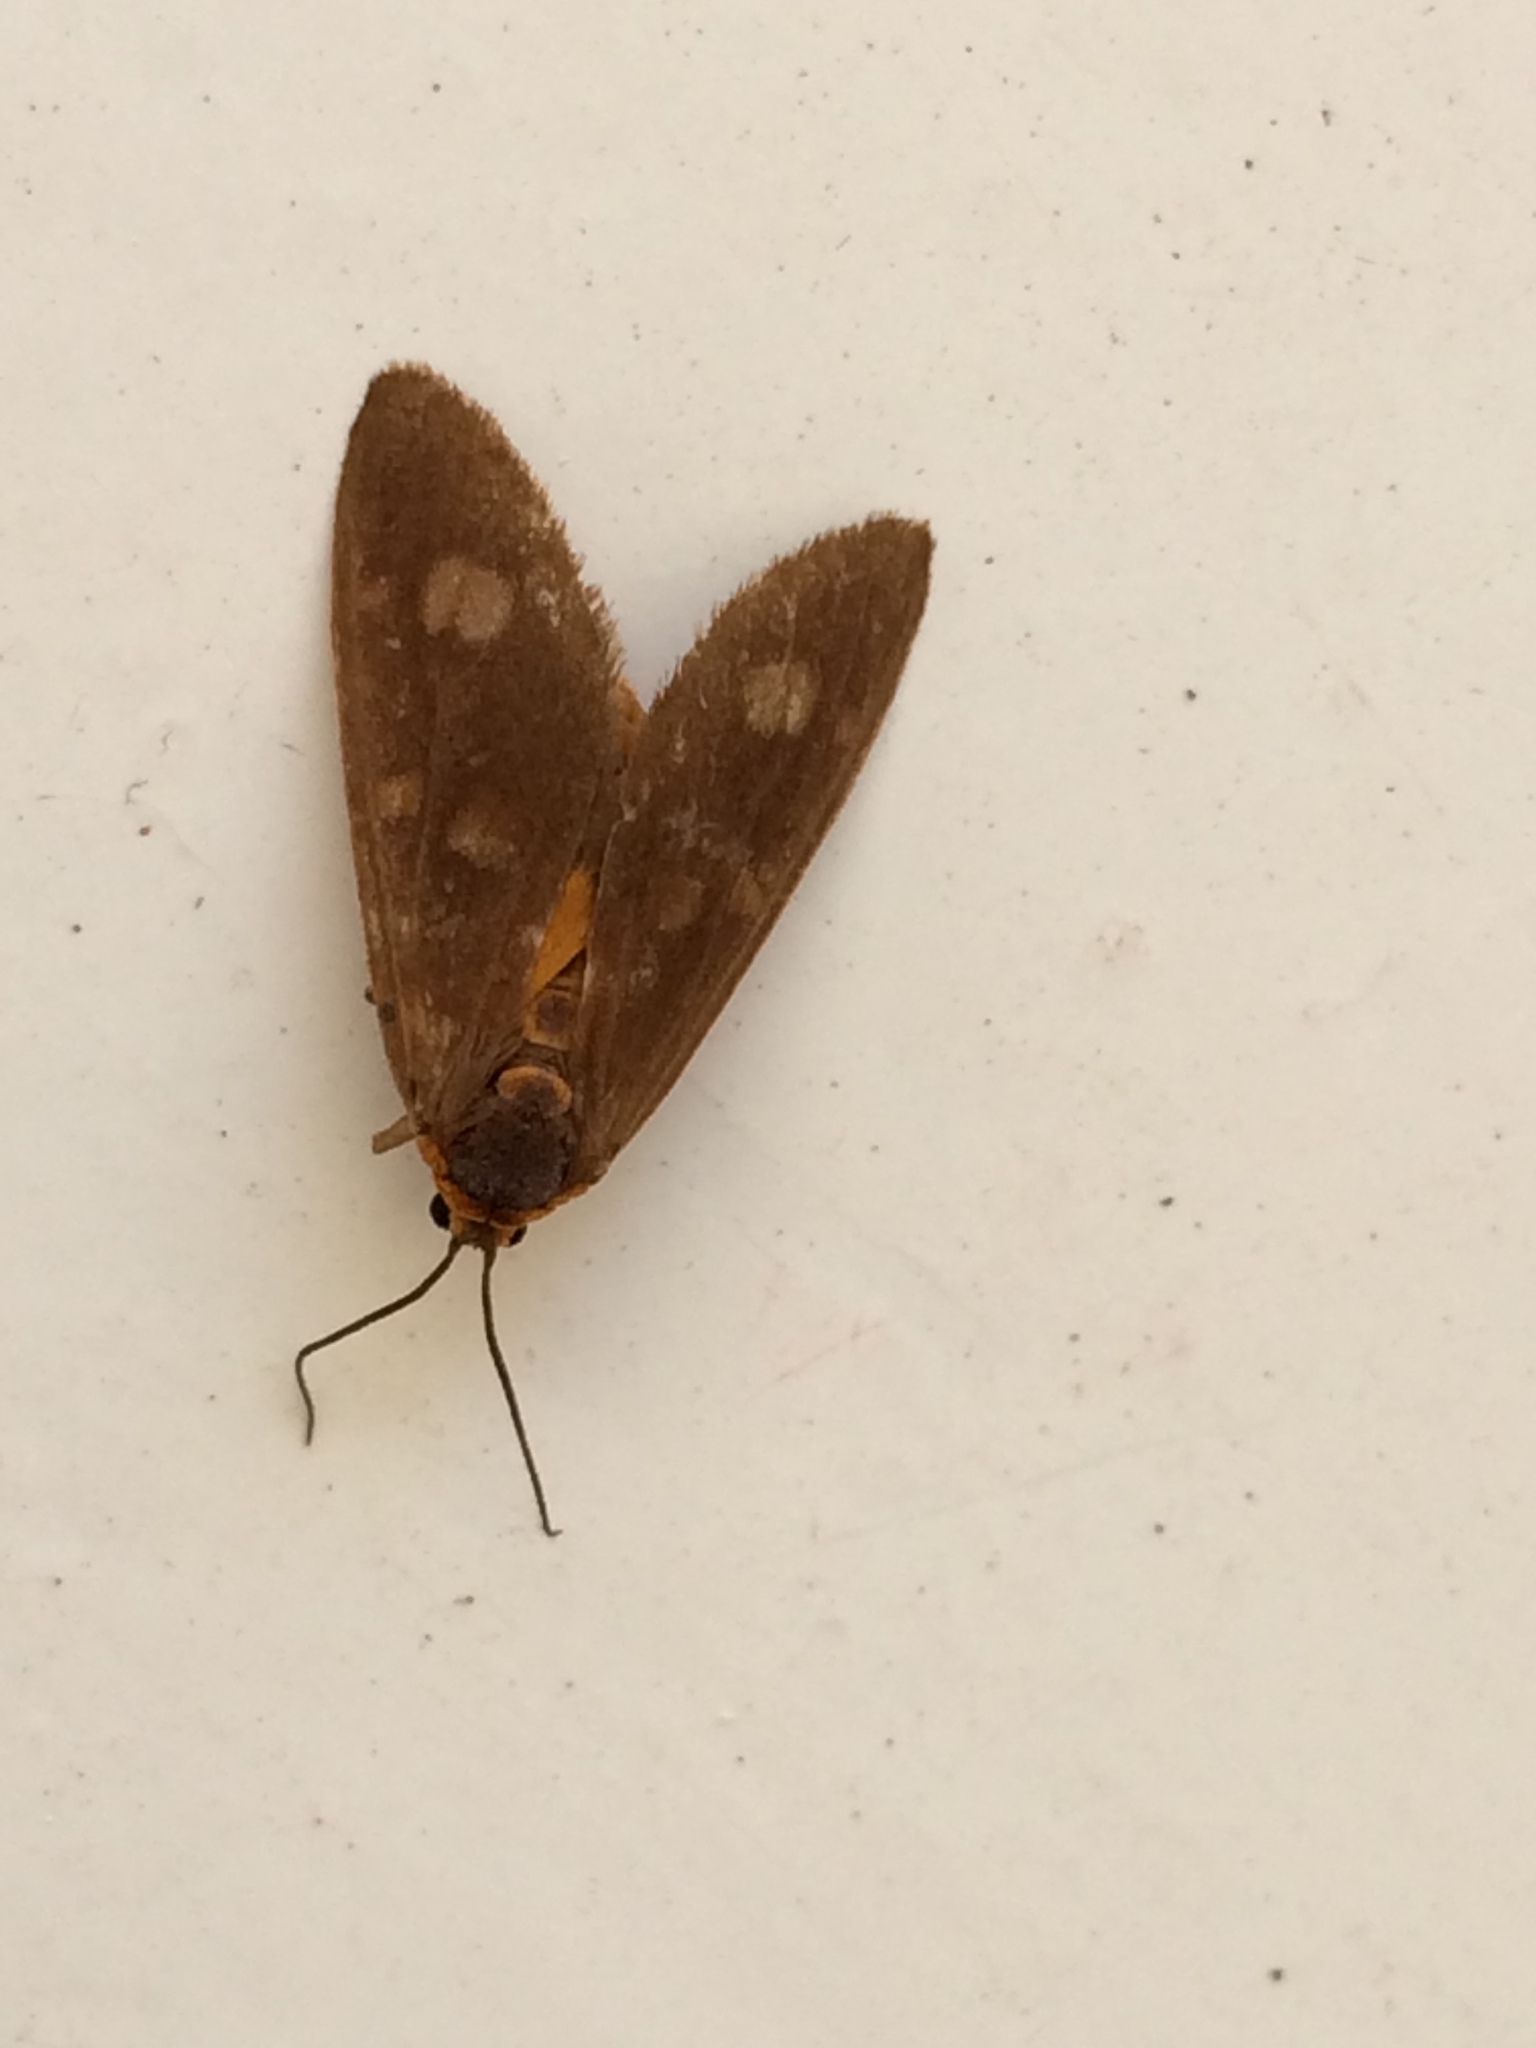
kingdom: Animalia
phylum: Arthropoda
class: Insecta
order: Lepidoptera
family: Erebidae
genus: Dysauxes
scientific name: Dysauxes punctata
